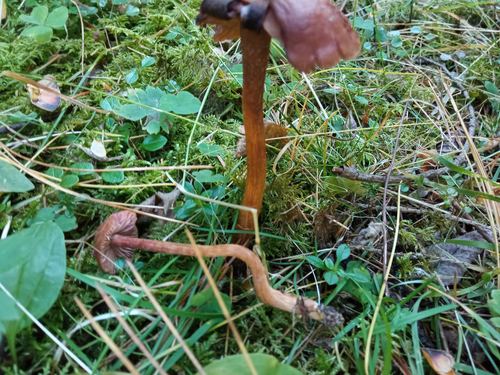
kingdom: Fungi
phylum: Basidiomycota
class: Agaricomycetes
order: Agaricales
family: Hydnangiaceae
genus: Laccaria
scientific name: Laccaria proxima
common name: Scurfy deceiver
